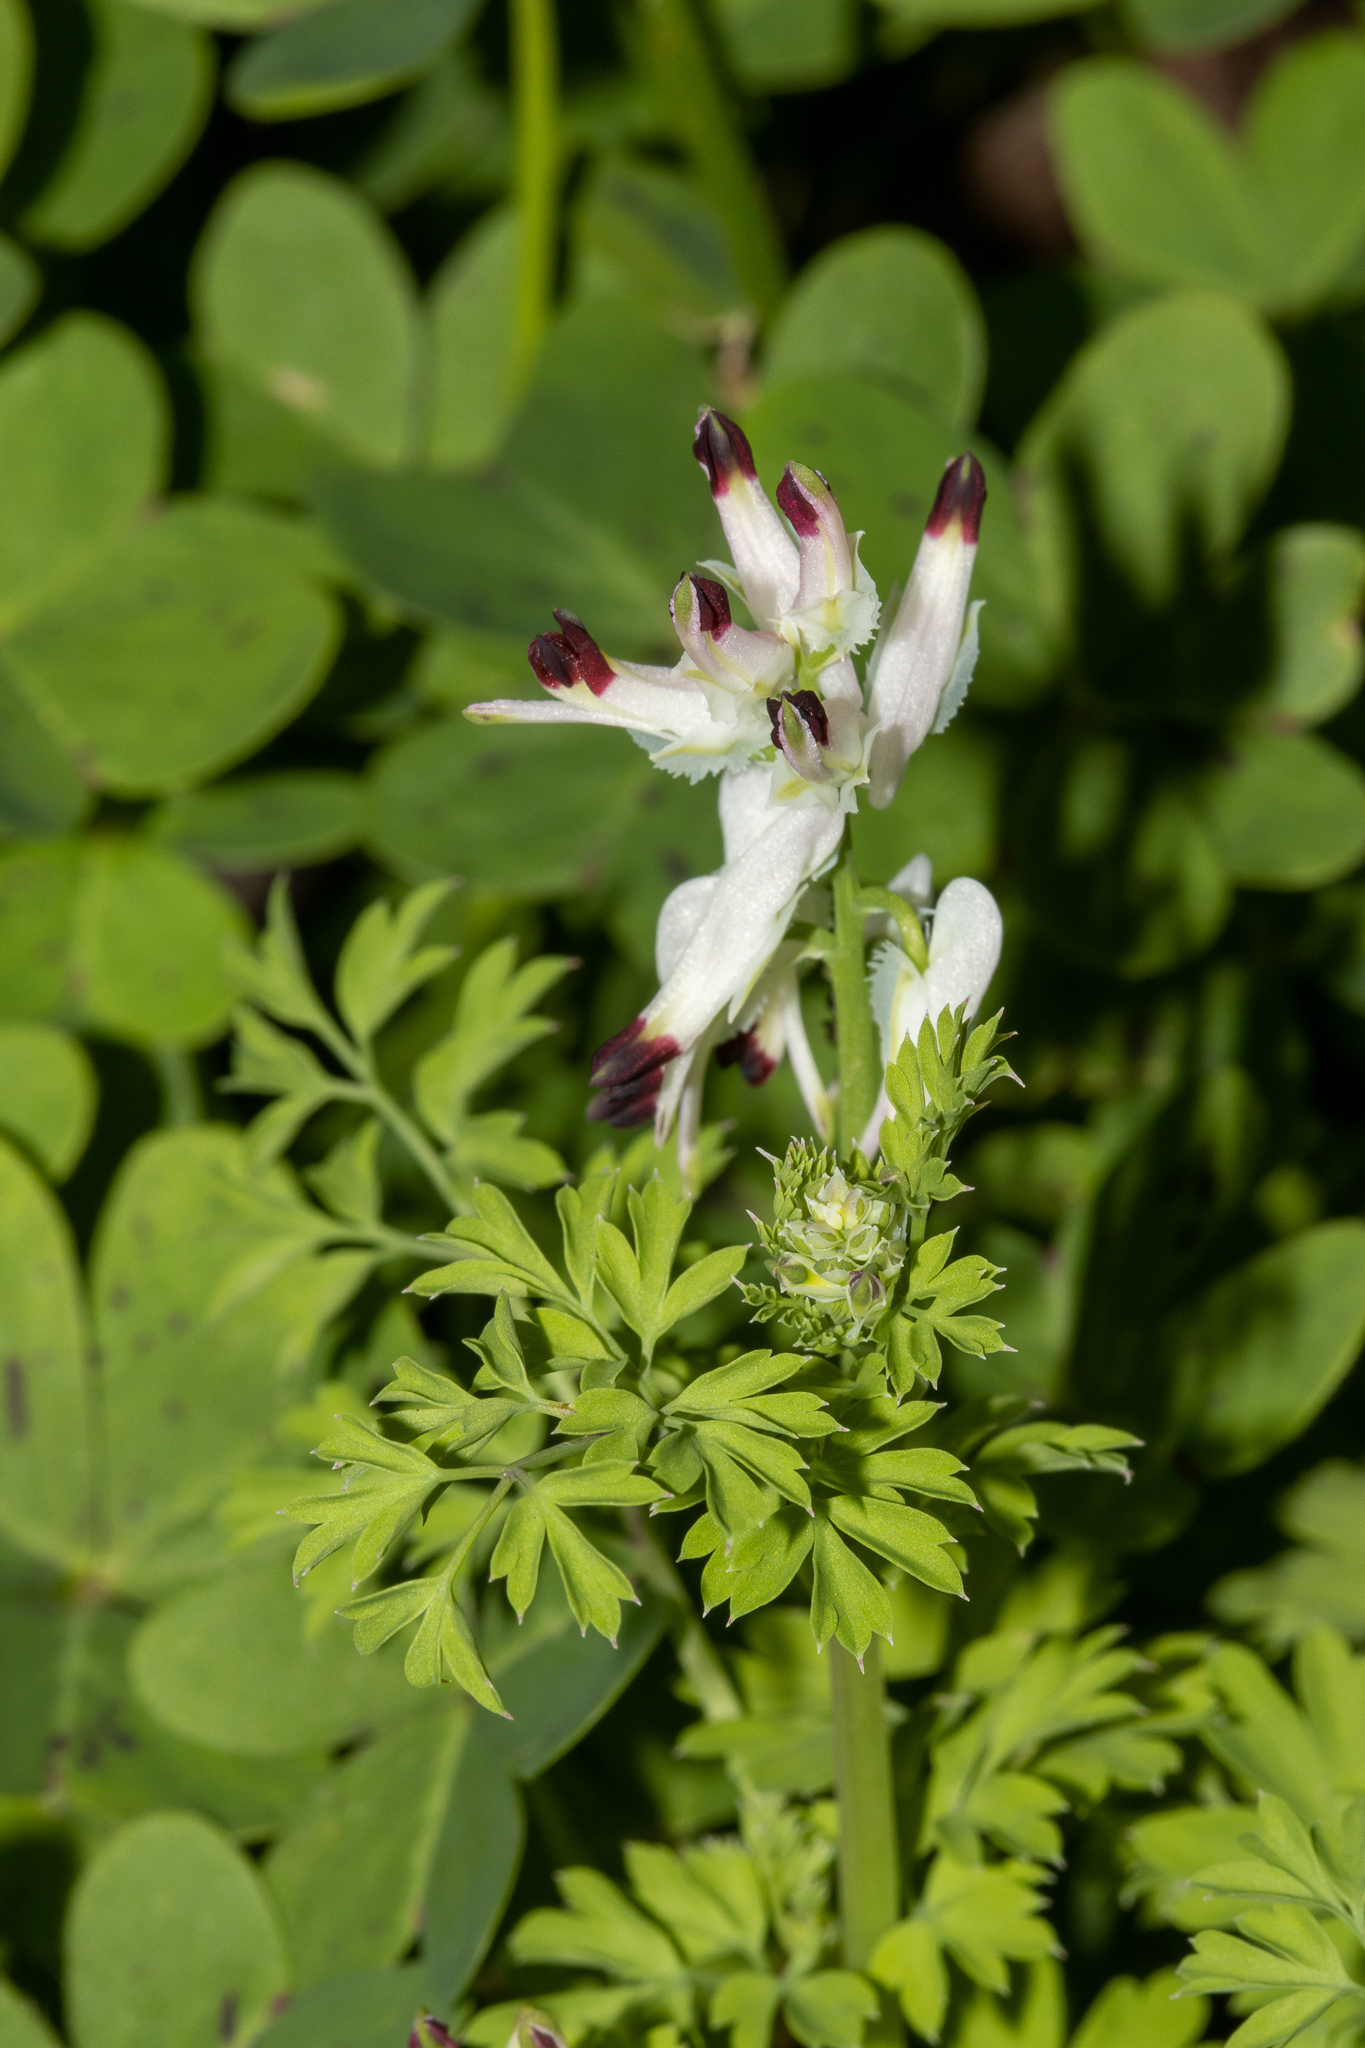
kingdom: Plantae
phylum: Tracheophyta
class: Magnoliopsida
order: Ranunculales
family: Papaveraceae
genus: Fumaria
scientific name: Fumaria capreolata
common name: White ramping-fumitory
